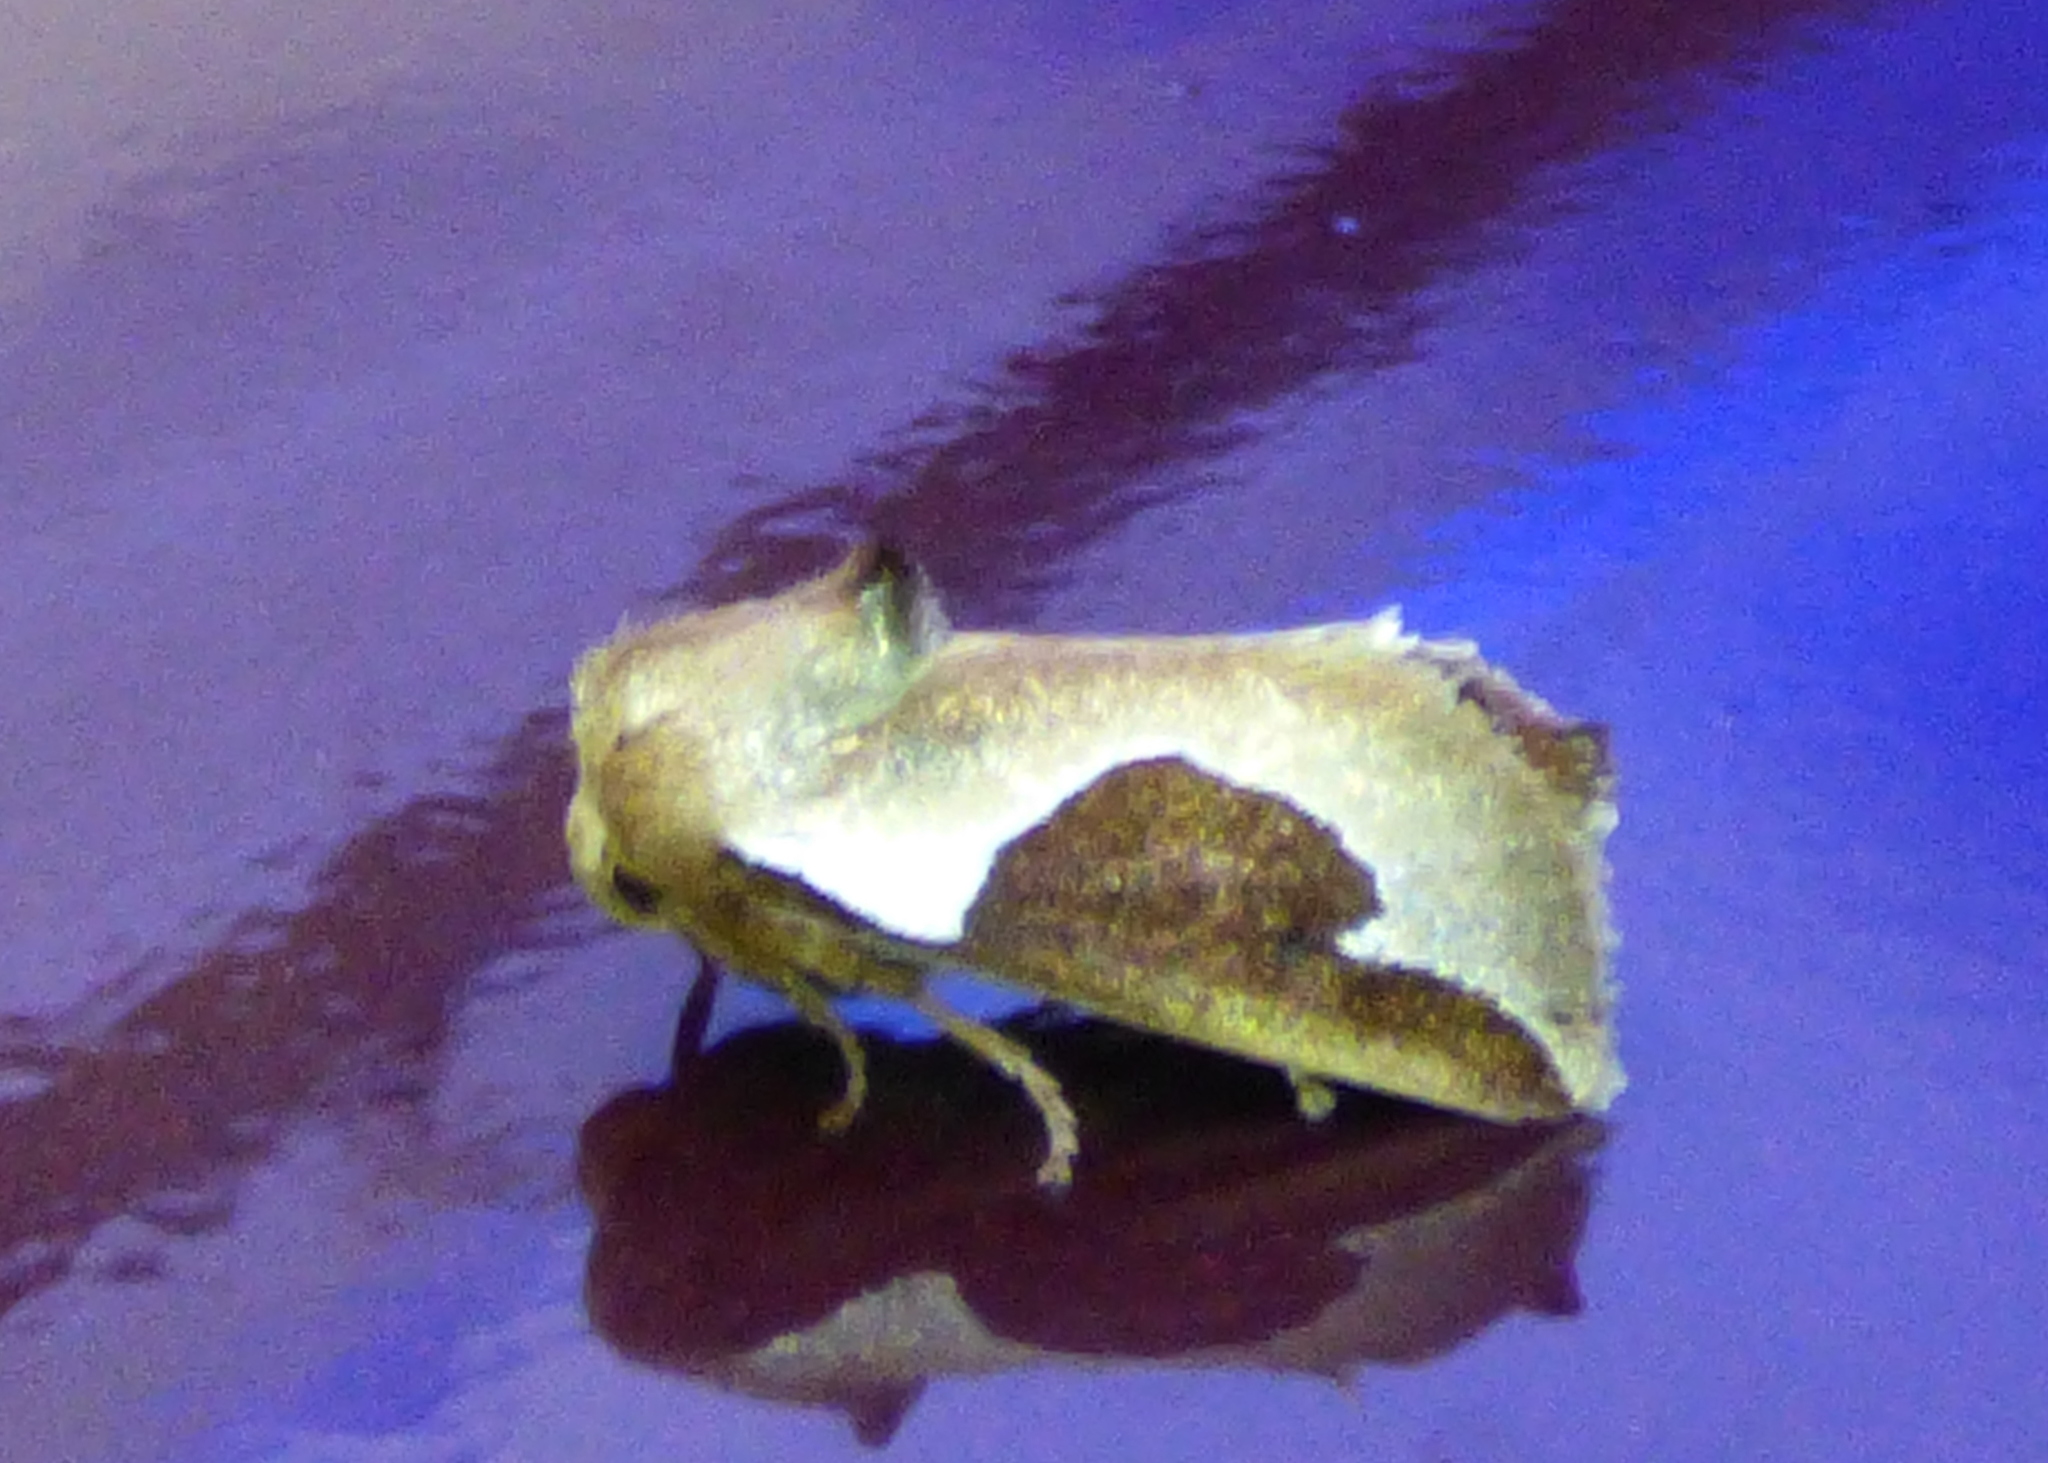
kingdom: Animalia
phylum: Arthropoda
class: Insecta
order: Lepidoptera
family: Limacodidae
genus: Prolimacodes
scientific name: Prolimacodes badia
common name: Skiff moth
